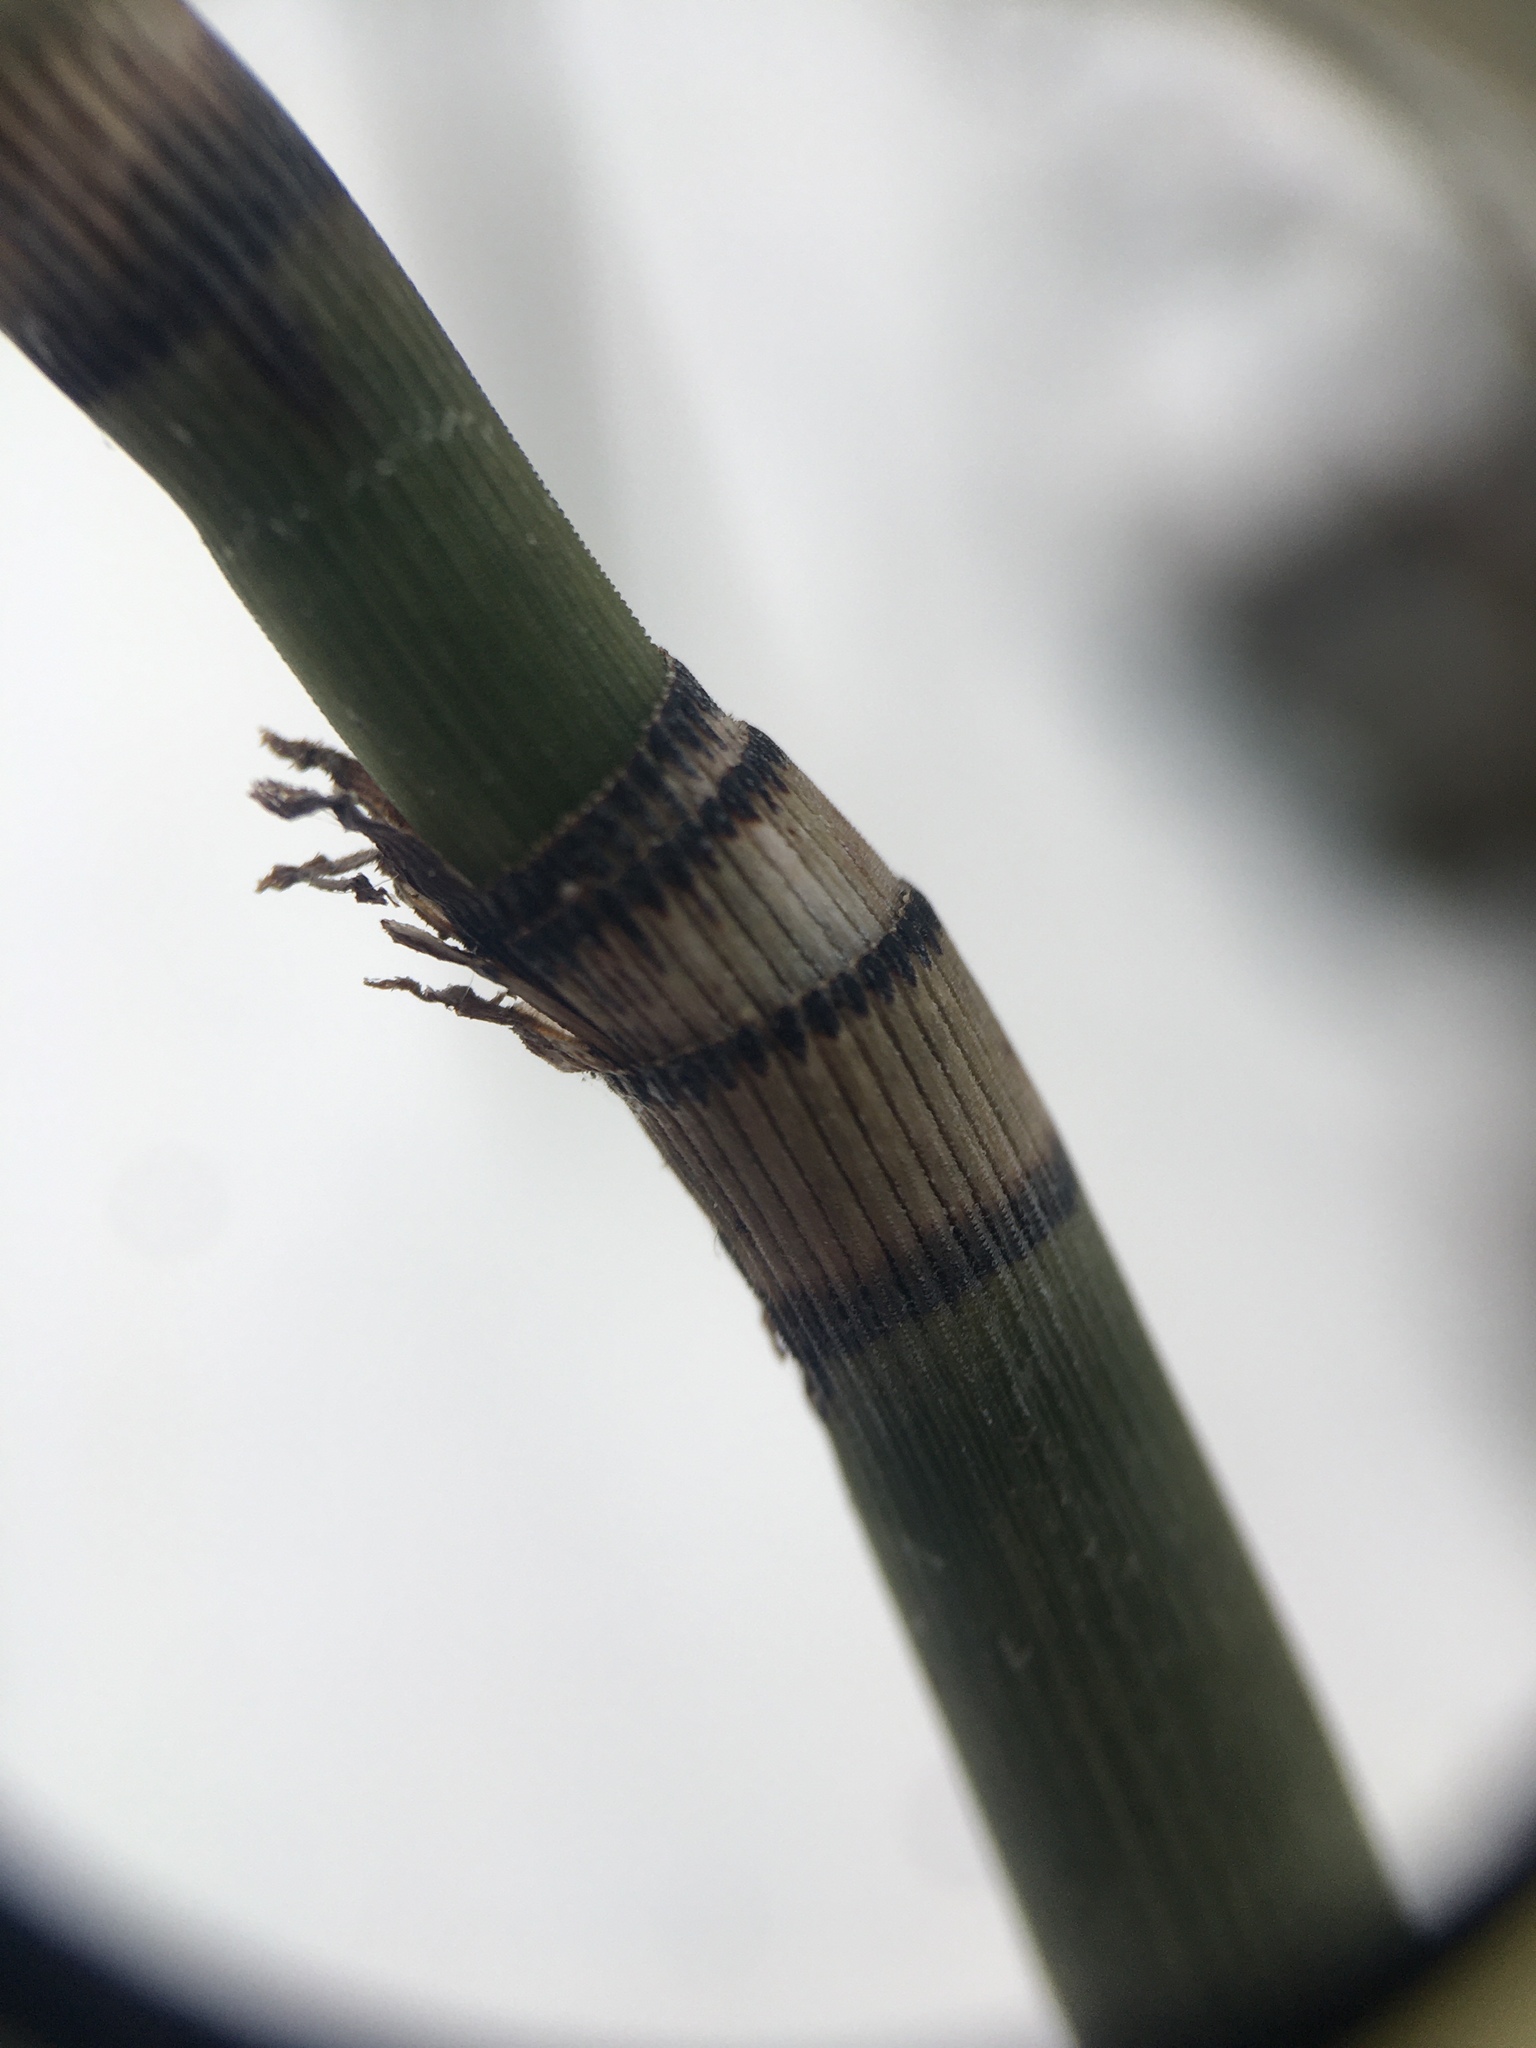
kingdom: Plantae
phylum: Tracheophyta
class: Polypodiopsida
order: Equisetales
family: Equisetaceae
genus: Equisetum
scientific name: Equisetum praealtum
